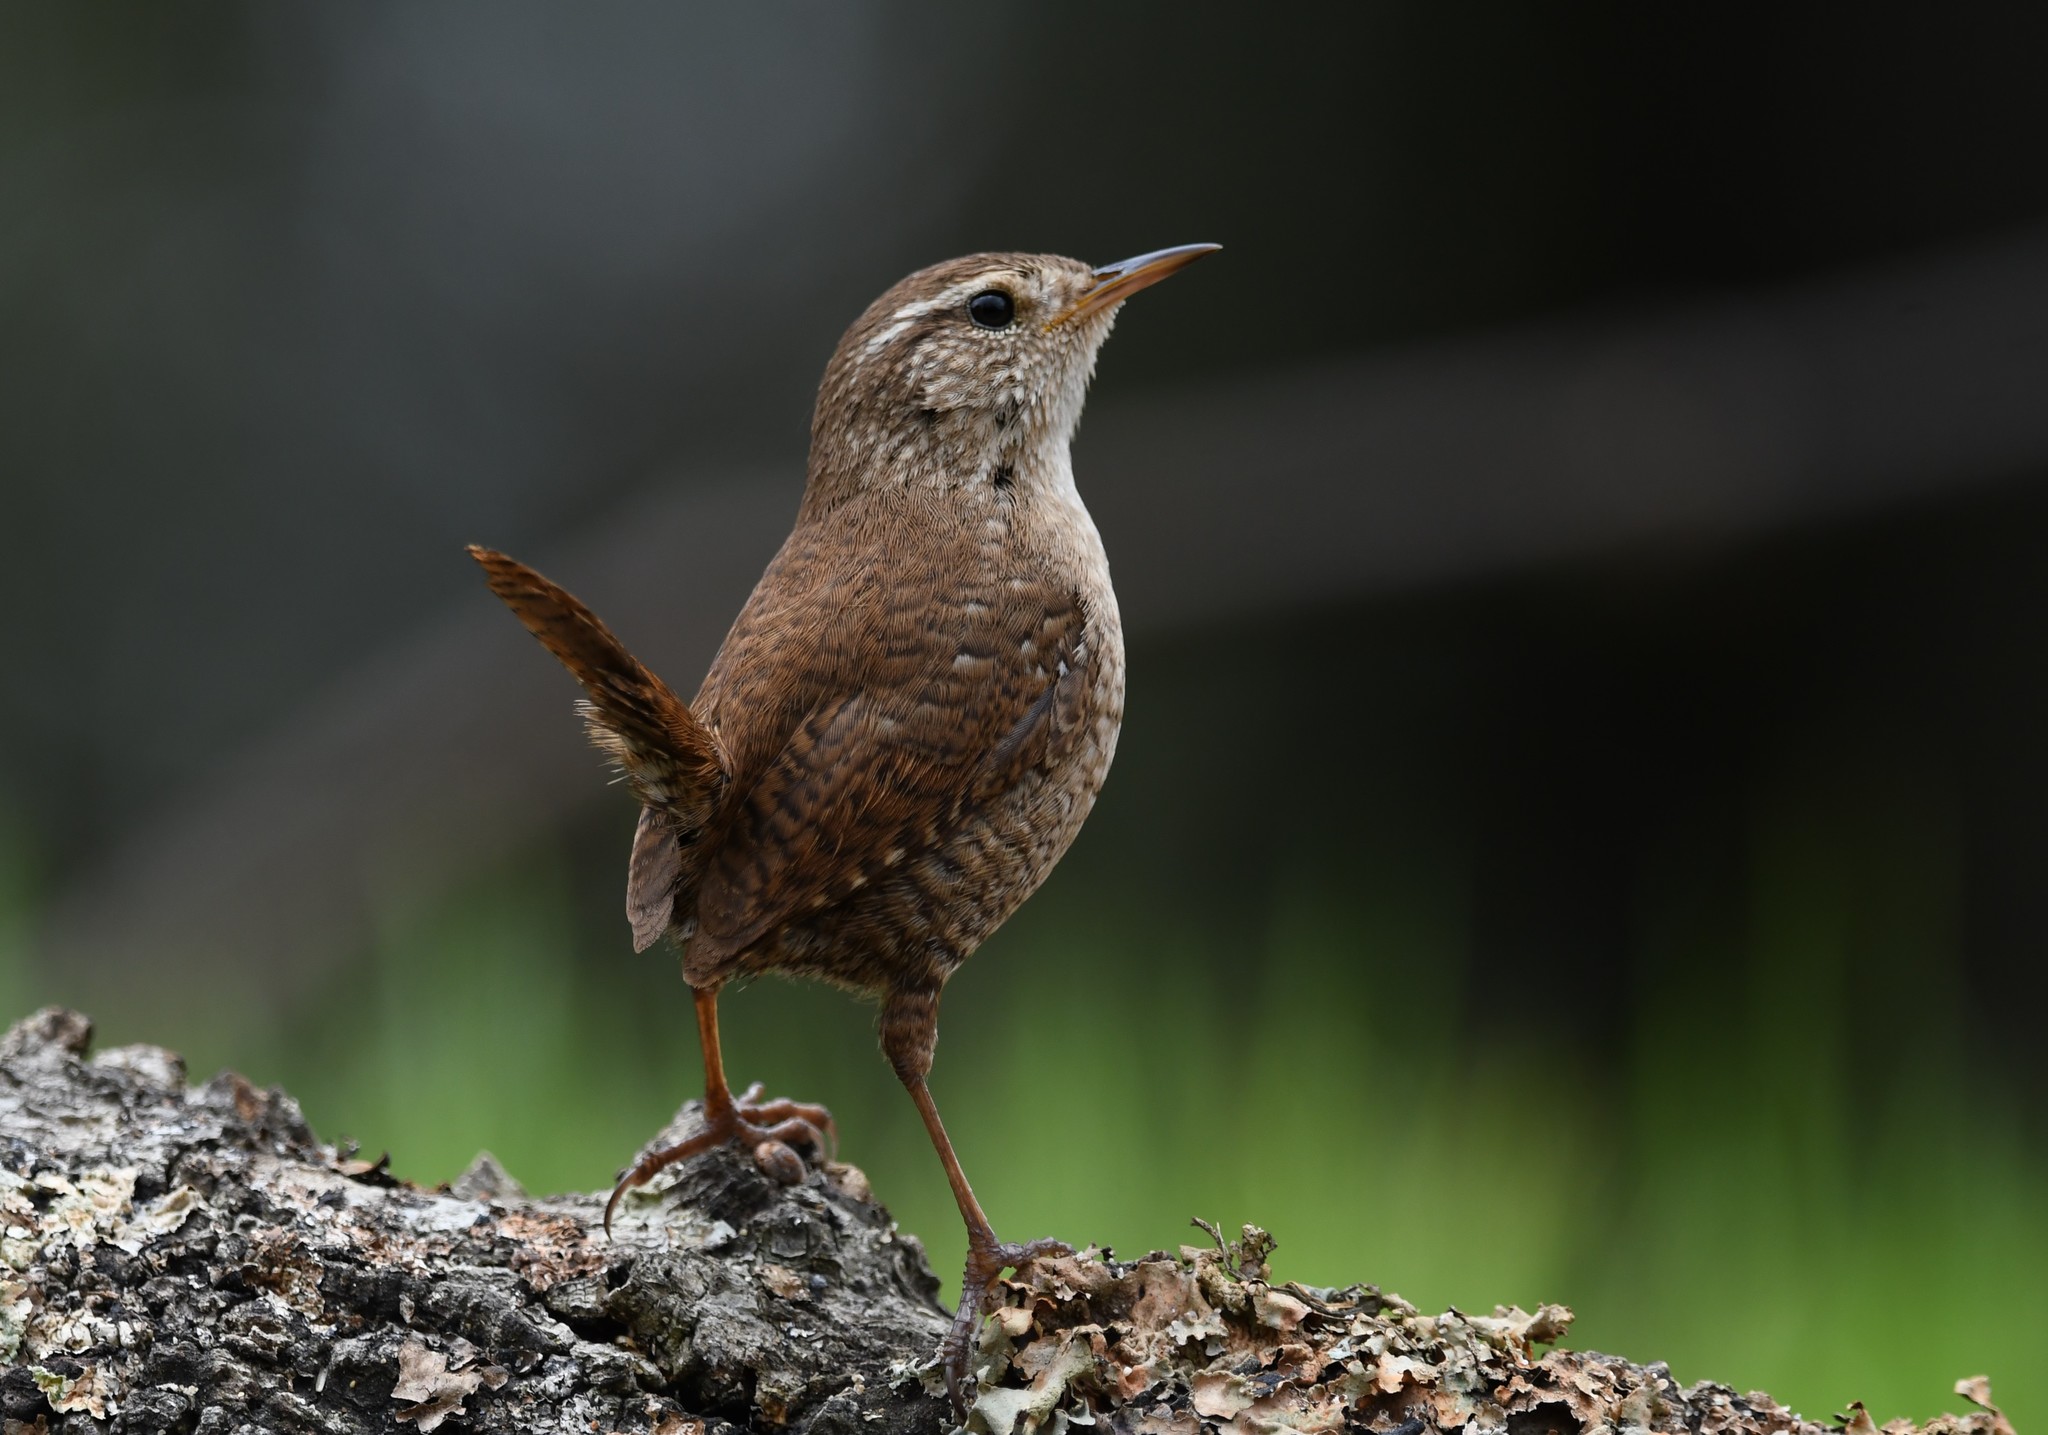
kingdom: Animalia
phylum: Chordata
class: Aves
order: Passeriformes
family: Troglodytidae
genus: Troglodytes
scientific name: Troglodytes troglodytes
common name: Eurasian wren
